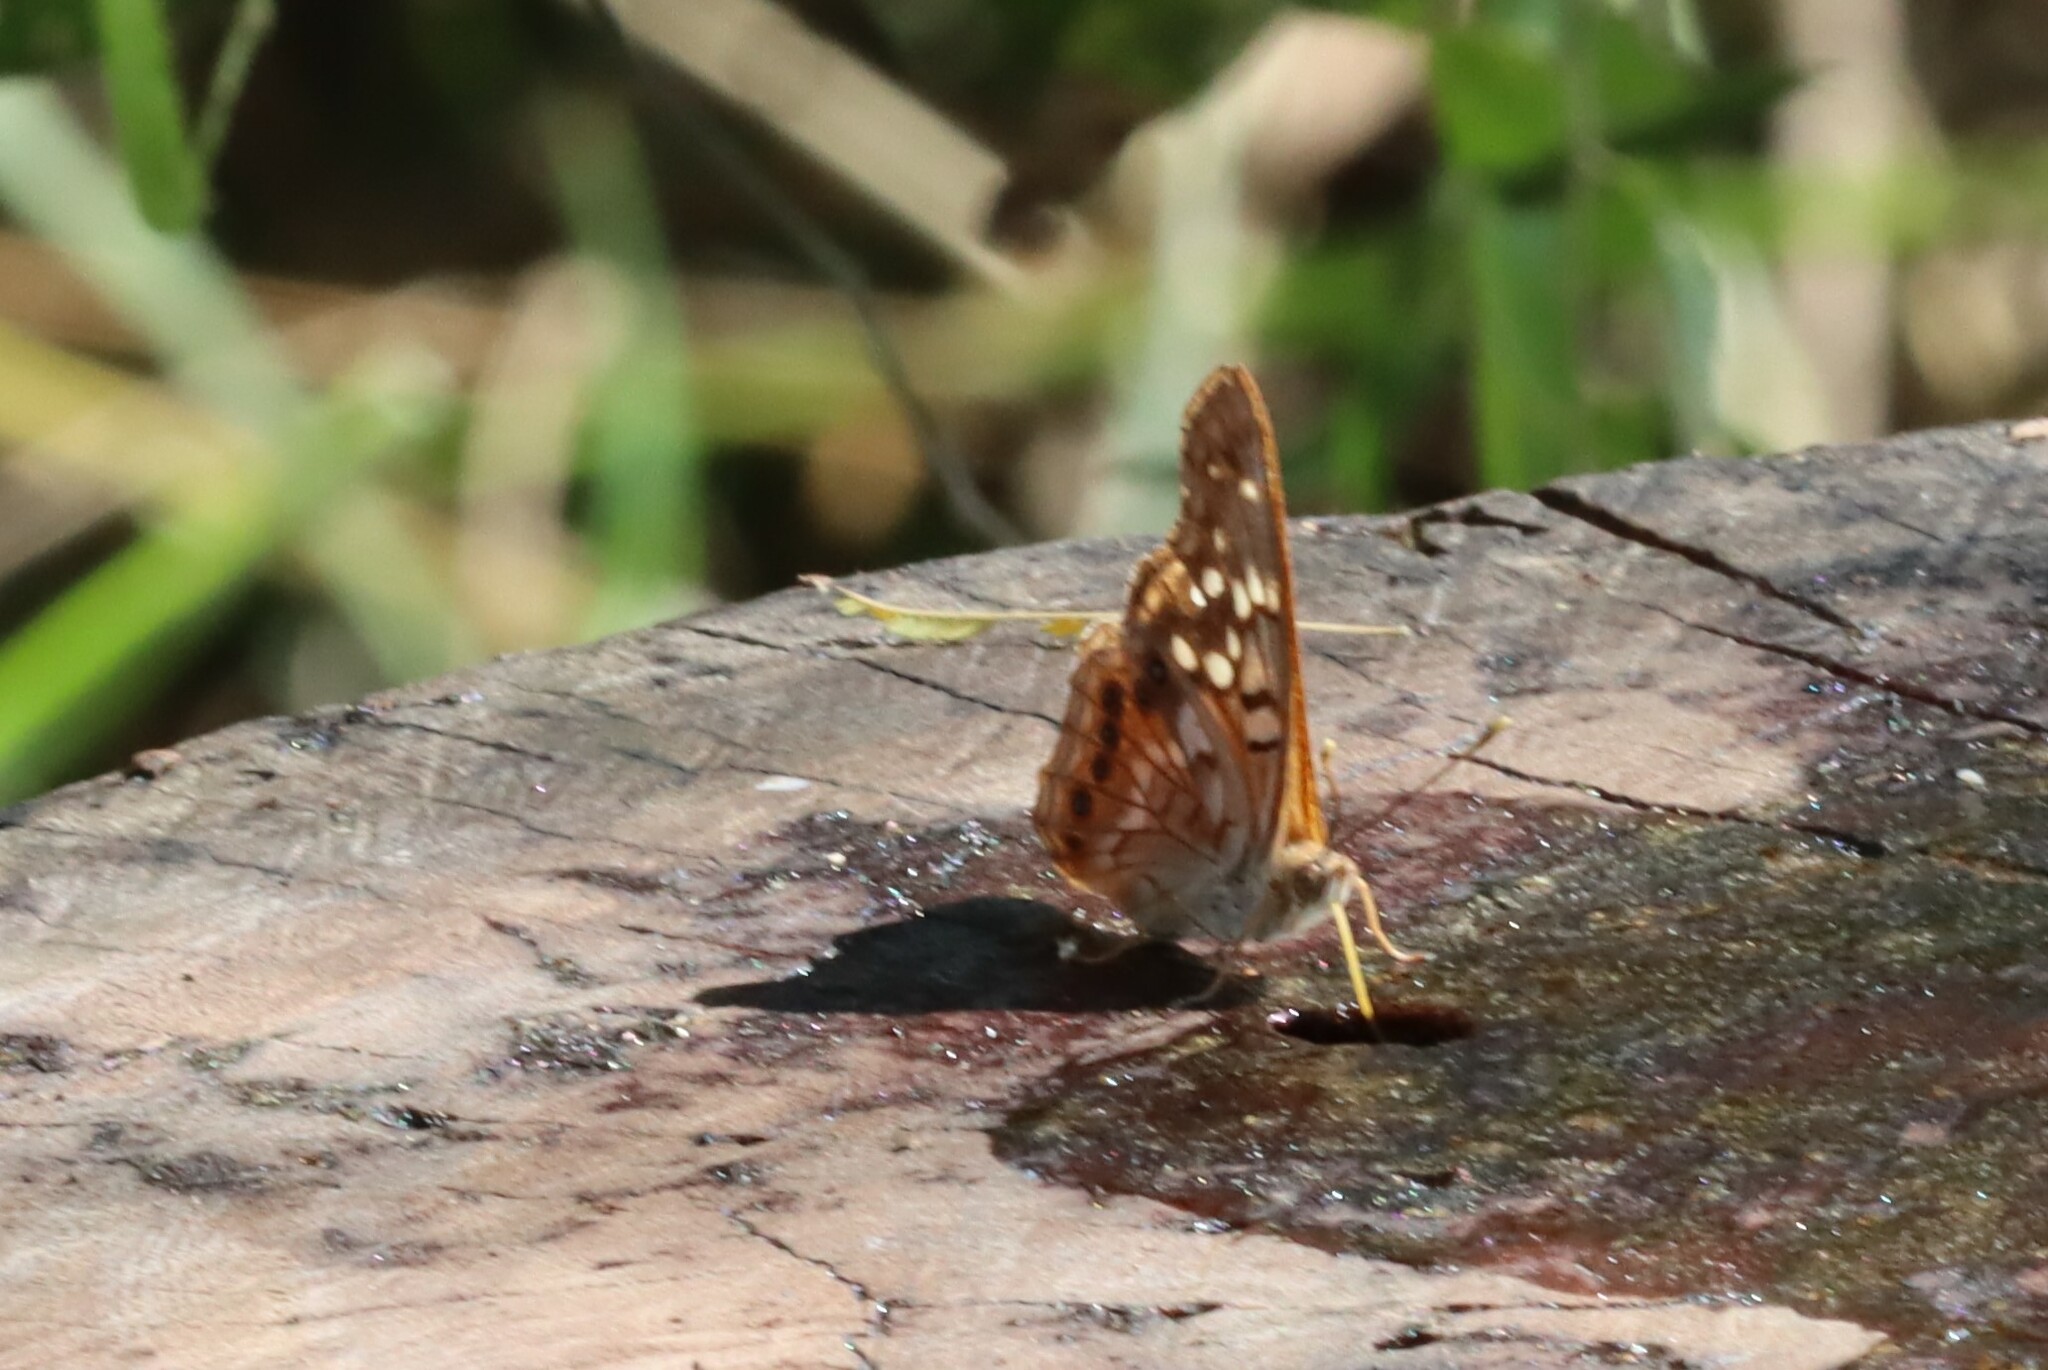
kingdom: Animalia
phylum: Arthropoda
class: Insecta
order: Lepidoptera
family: Nymphalidae
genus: Asterocampa
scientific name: Asterocampa clyton
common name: Tawny emperor
